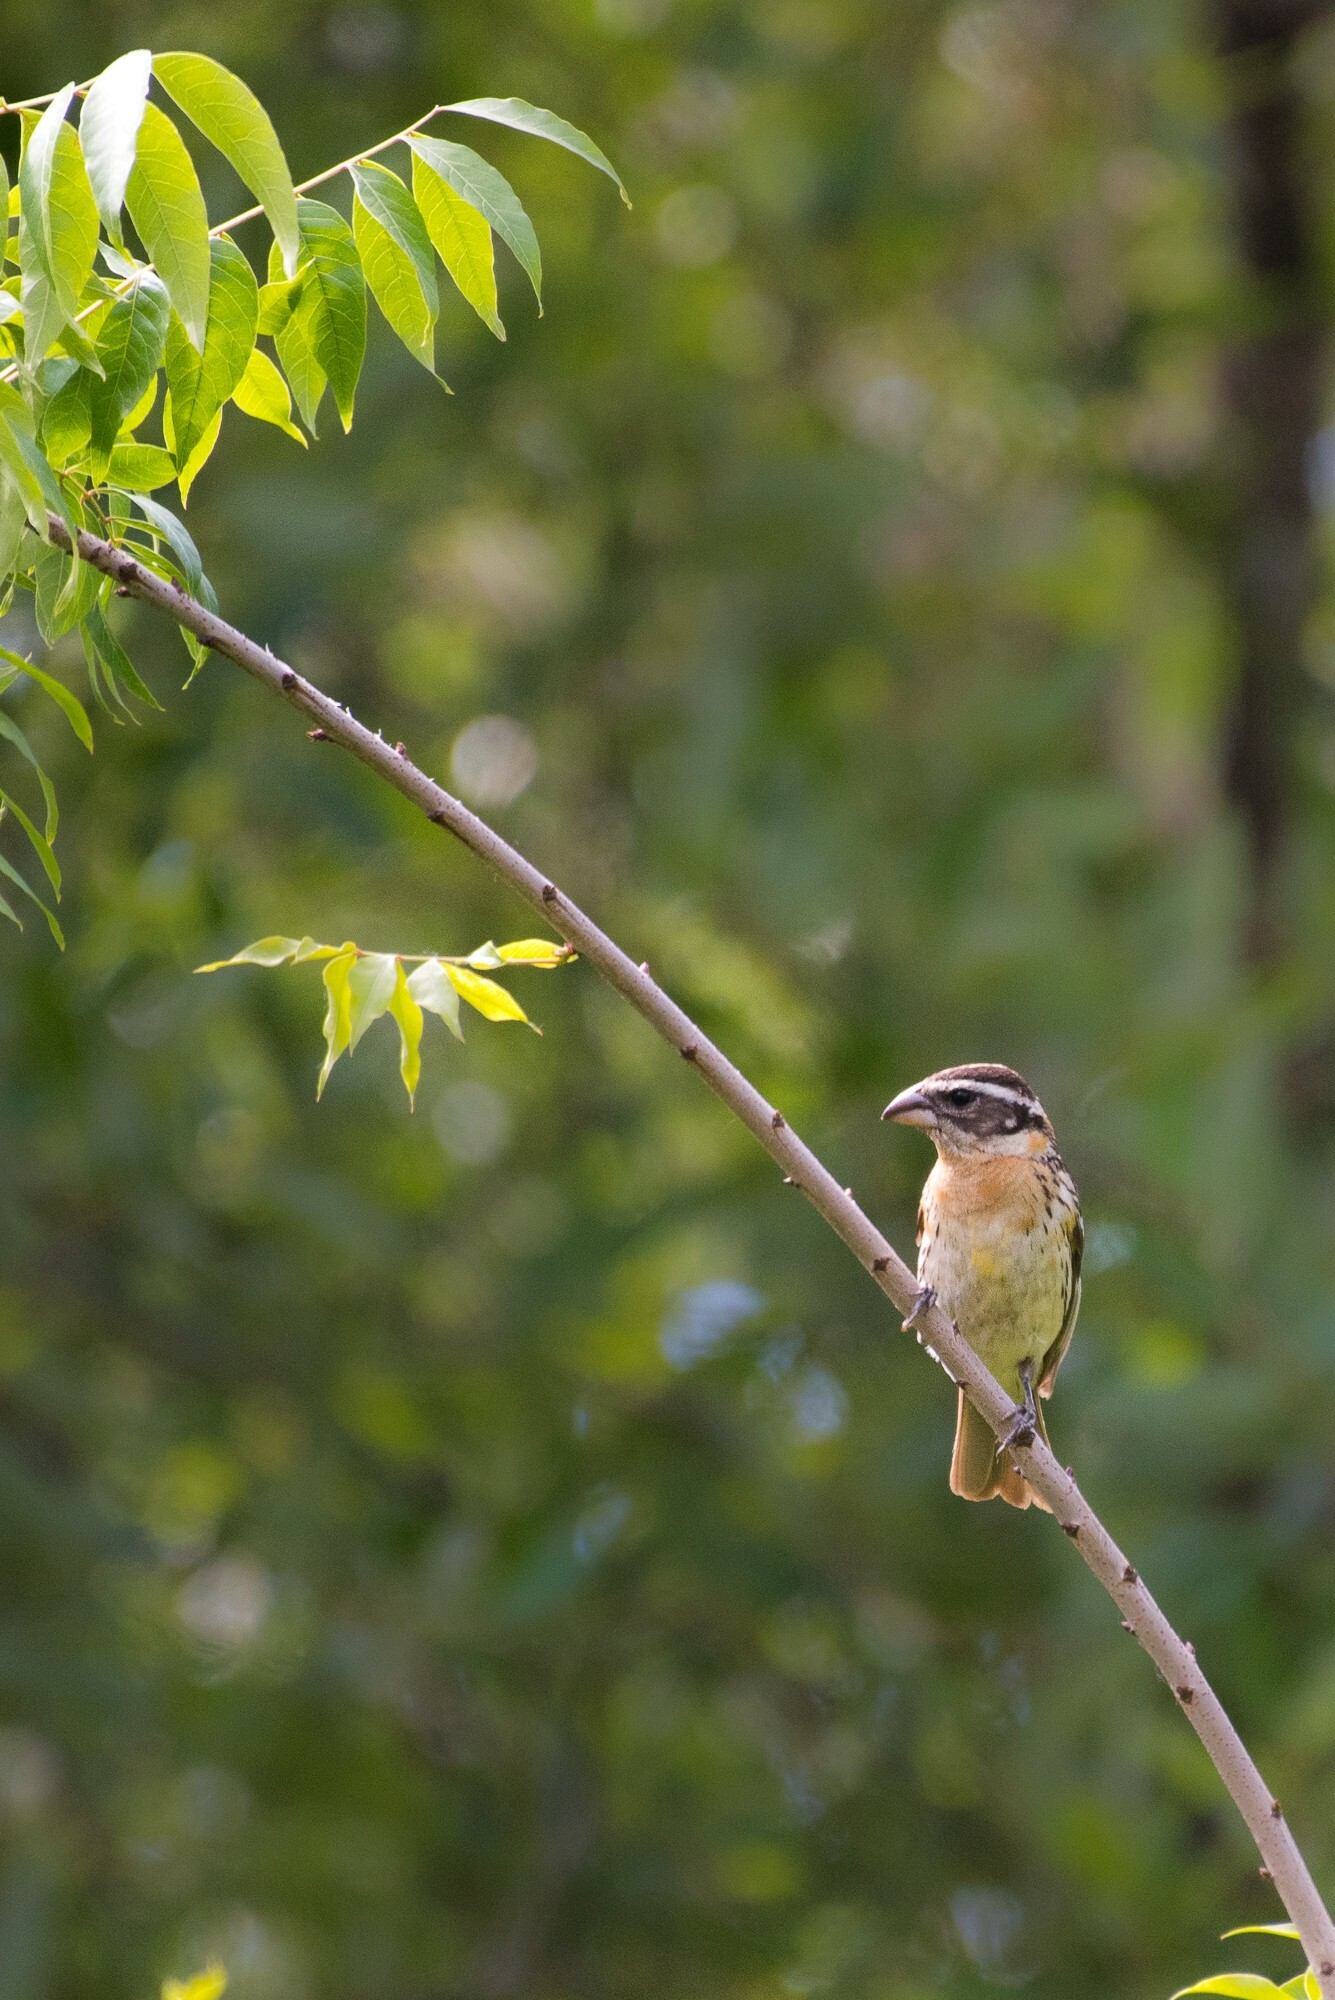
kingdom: Animalia
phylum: Chordata
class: Aves
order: Passeriformes
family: Cardinalidae
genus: Pheucticus
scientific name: Pheucticus melanocephalus
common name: Black-headed grosbeak
